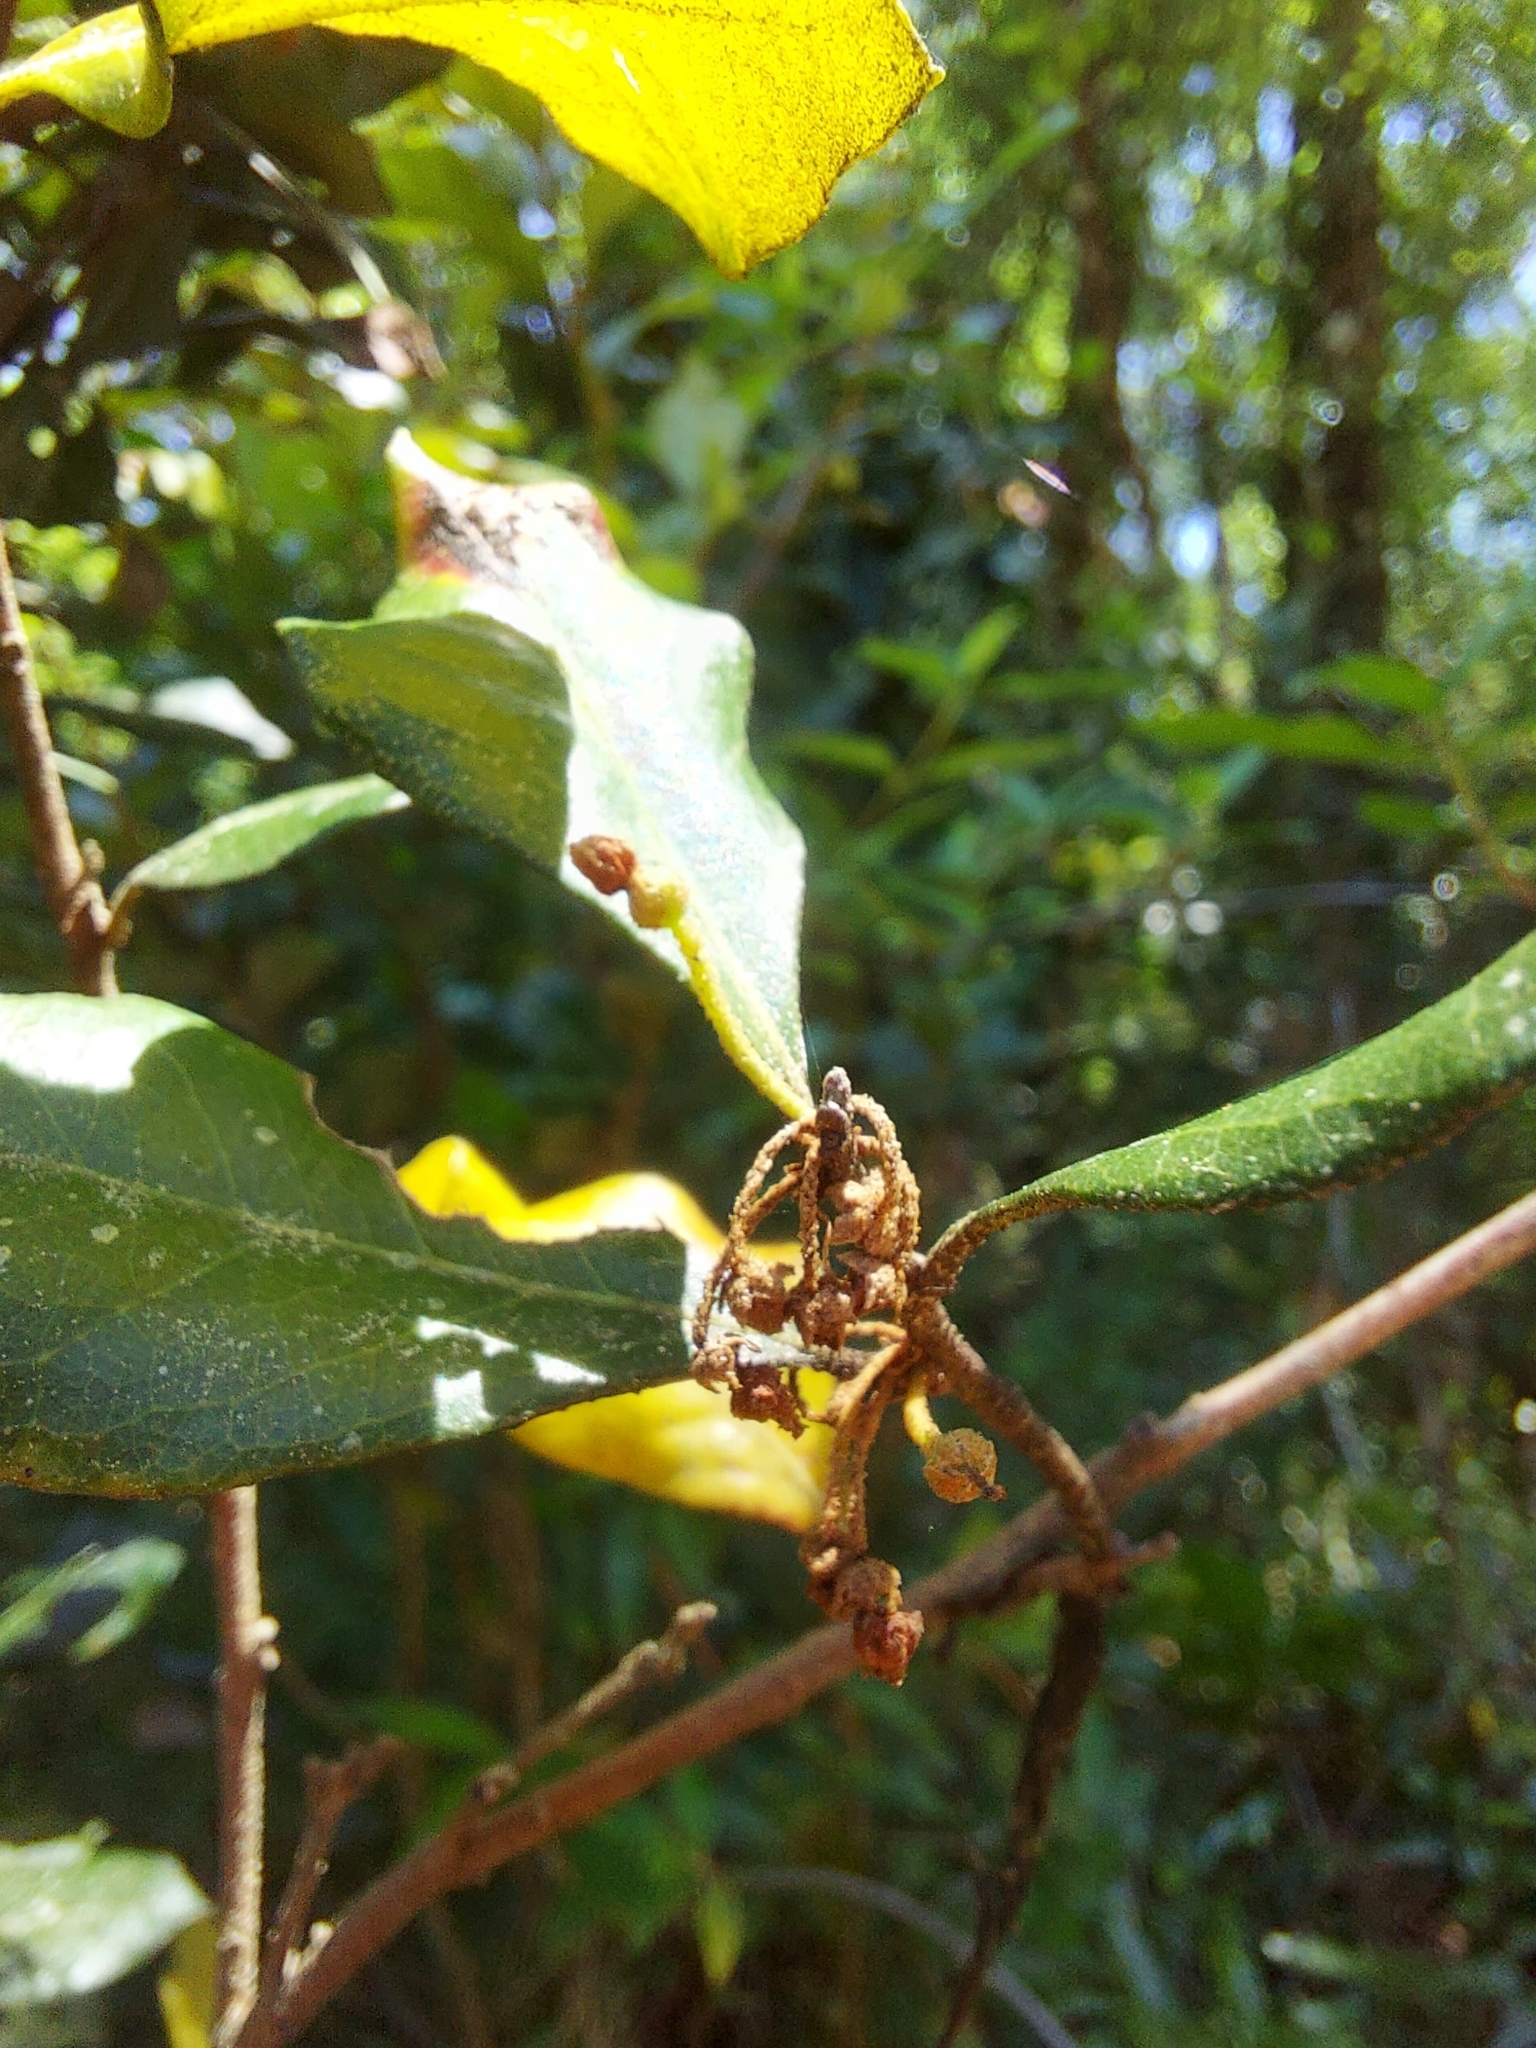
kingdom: Plantae
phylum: Tracheophyta
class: Magnoliopsida
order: Ericales
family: Ericaceae
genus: Lyonia
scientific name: Lyonia ferruginea
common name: Rusty lyonia
